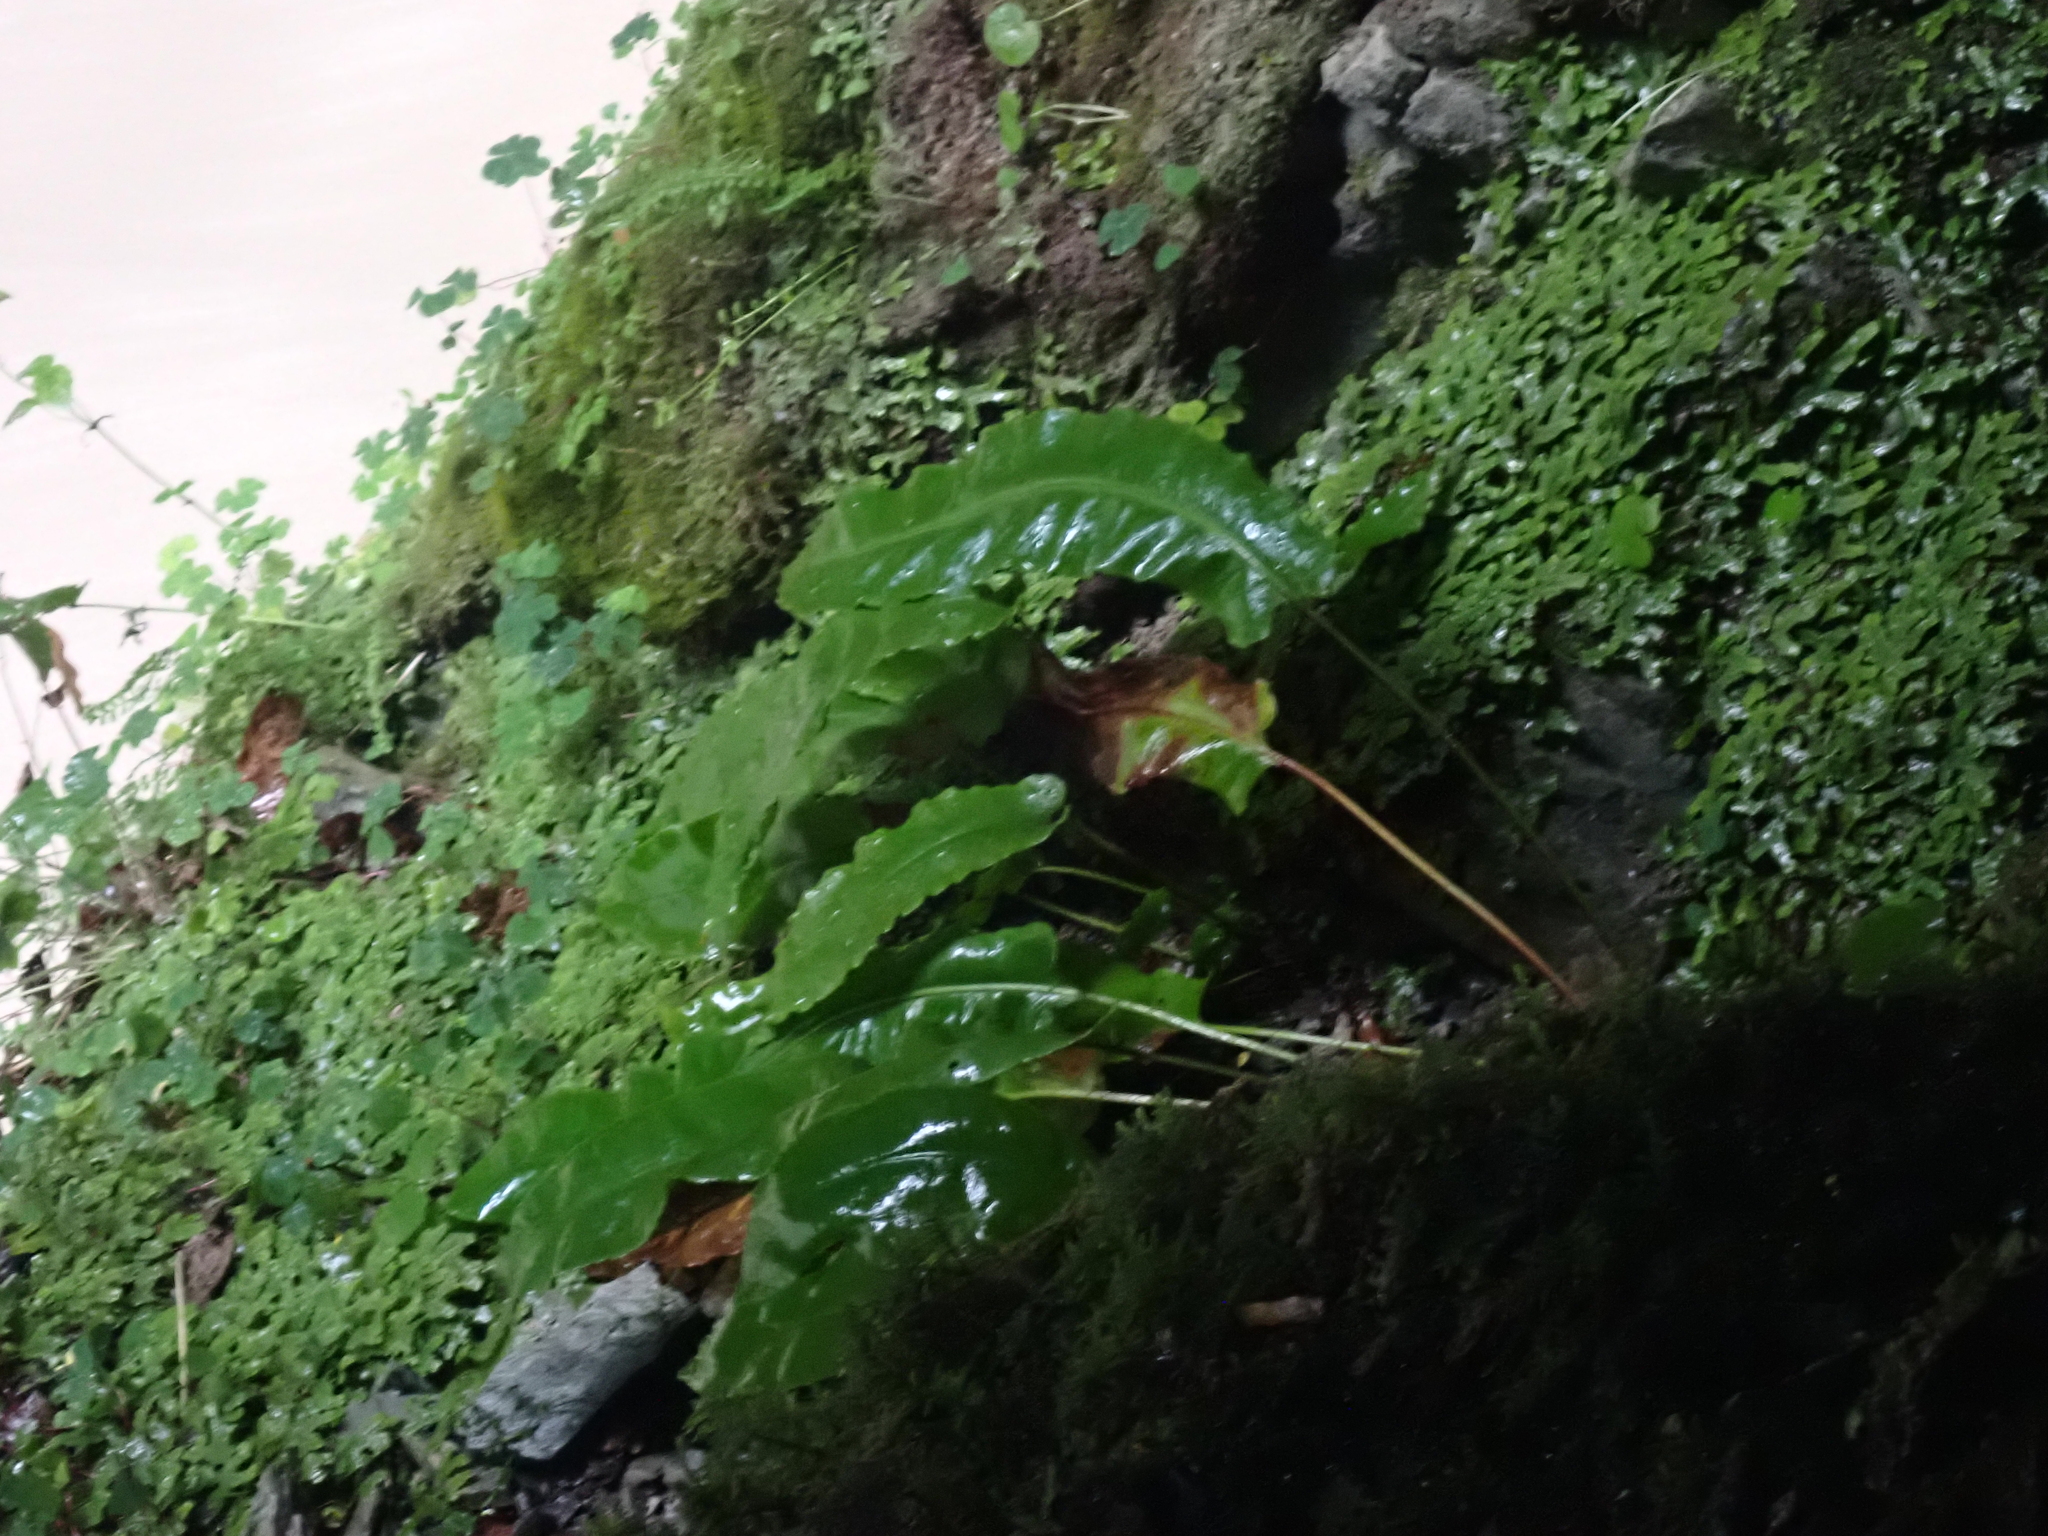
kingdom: Plantae
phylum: Tracheophyta
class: Polypodiopsida
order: Polypodiales
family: Aspleniaceae
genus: Asplenium
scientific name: Asplenium scolopendrium
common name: Hart's-tongue fern
